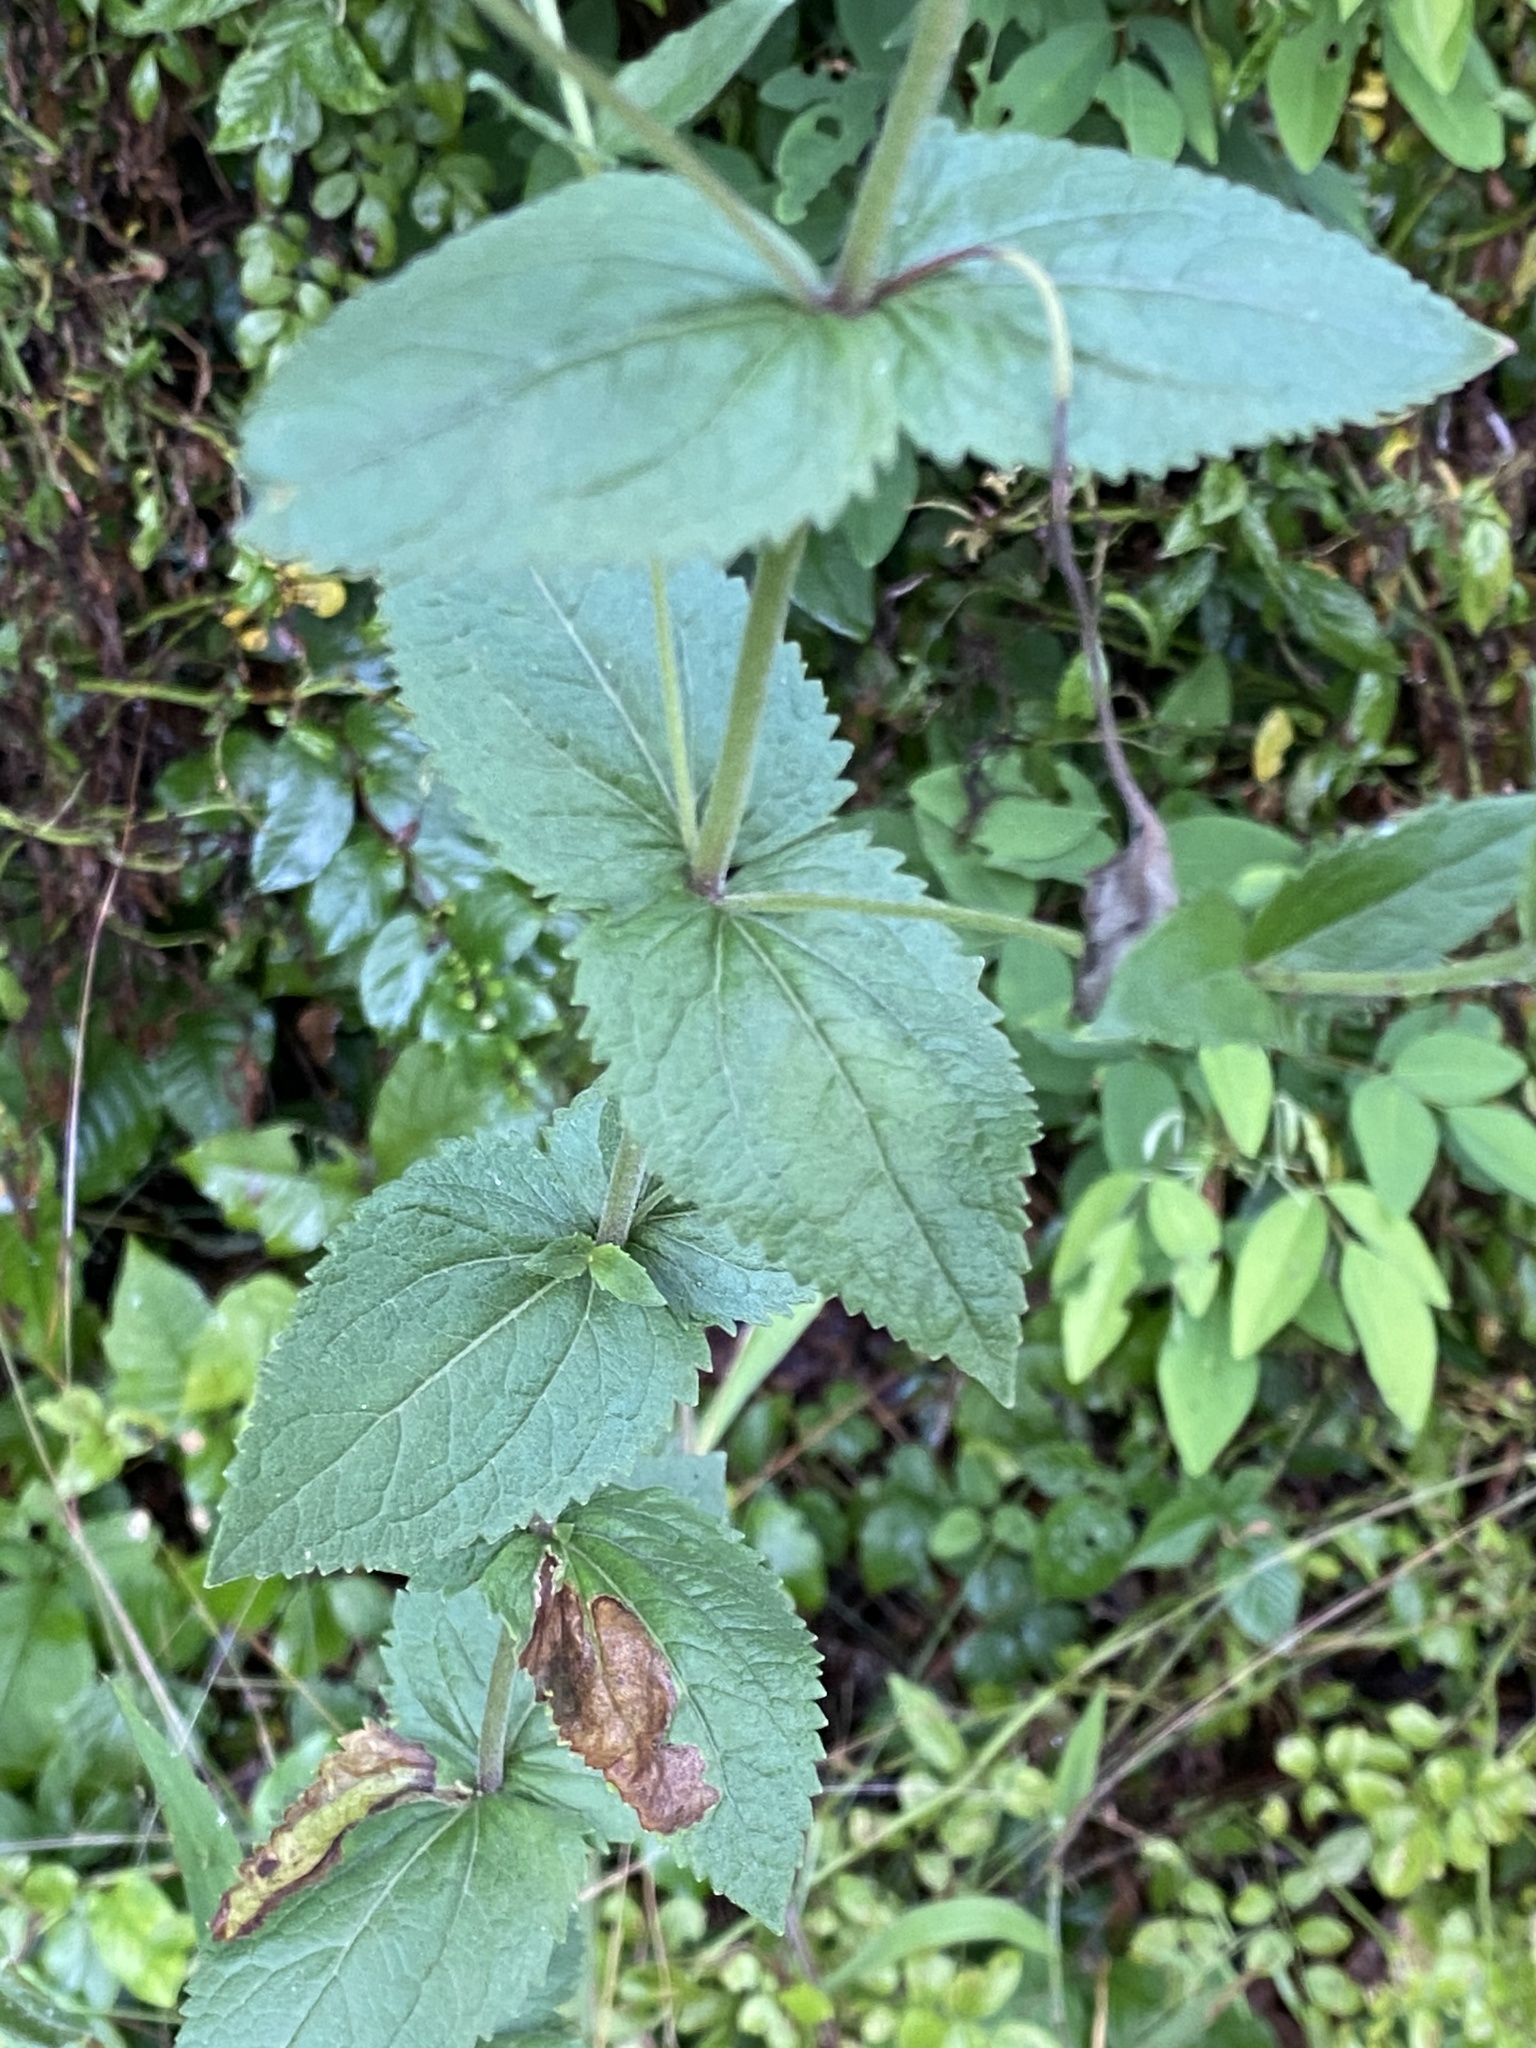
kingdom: Plantae
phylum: Tracheophyta
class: Magnoliopsida
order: Asterales
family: Asteraceae
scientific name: Asteraceae
